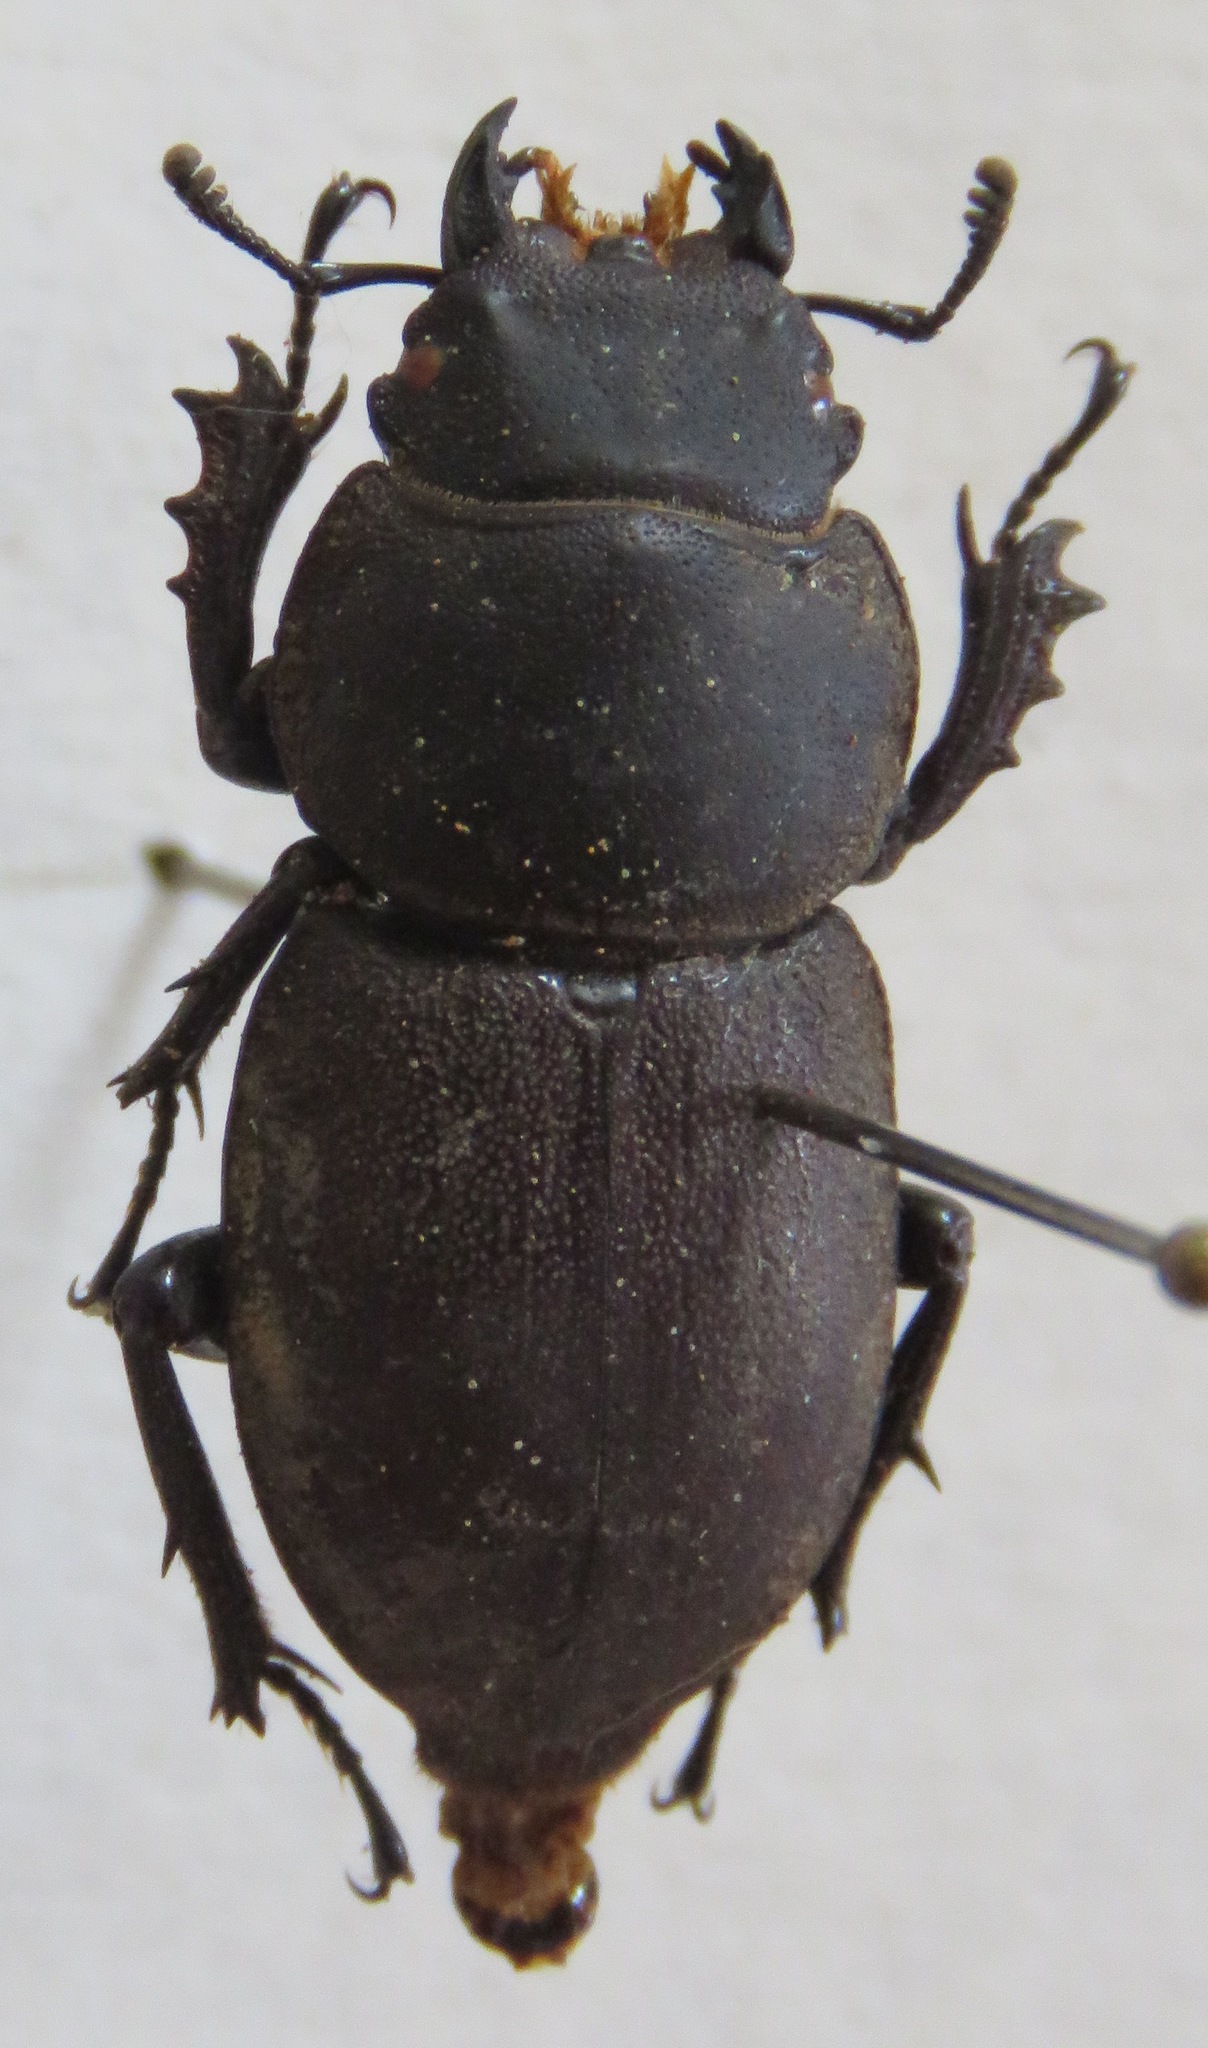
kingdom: Animalia
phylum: Arthropoda
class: Insecta
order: Coleoptera
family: Lucanidae
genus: Apterodorcus
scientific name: Apterodorcus bacchus
